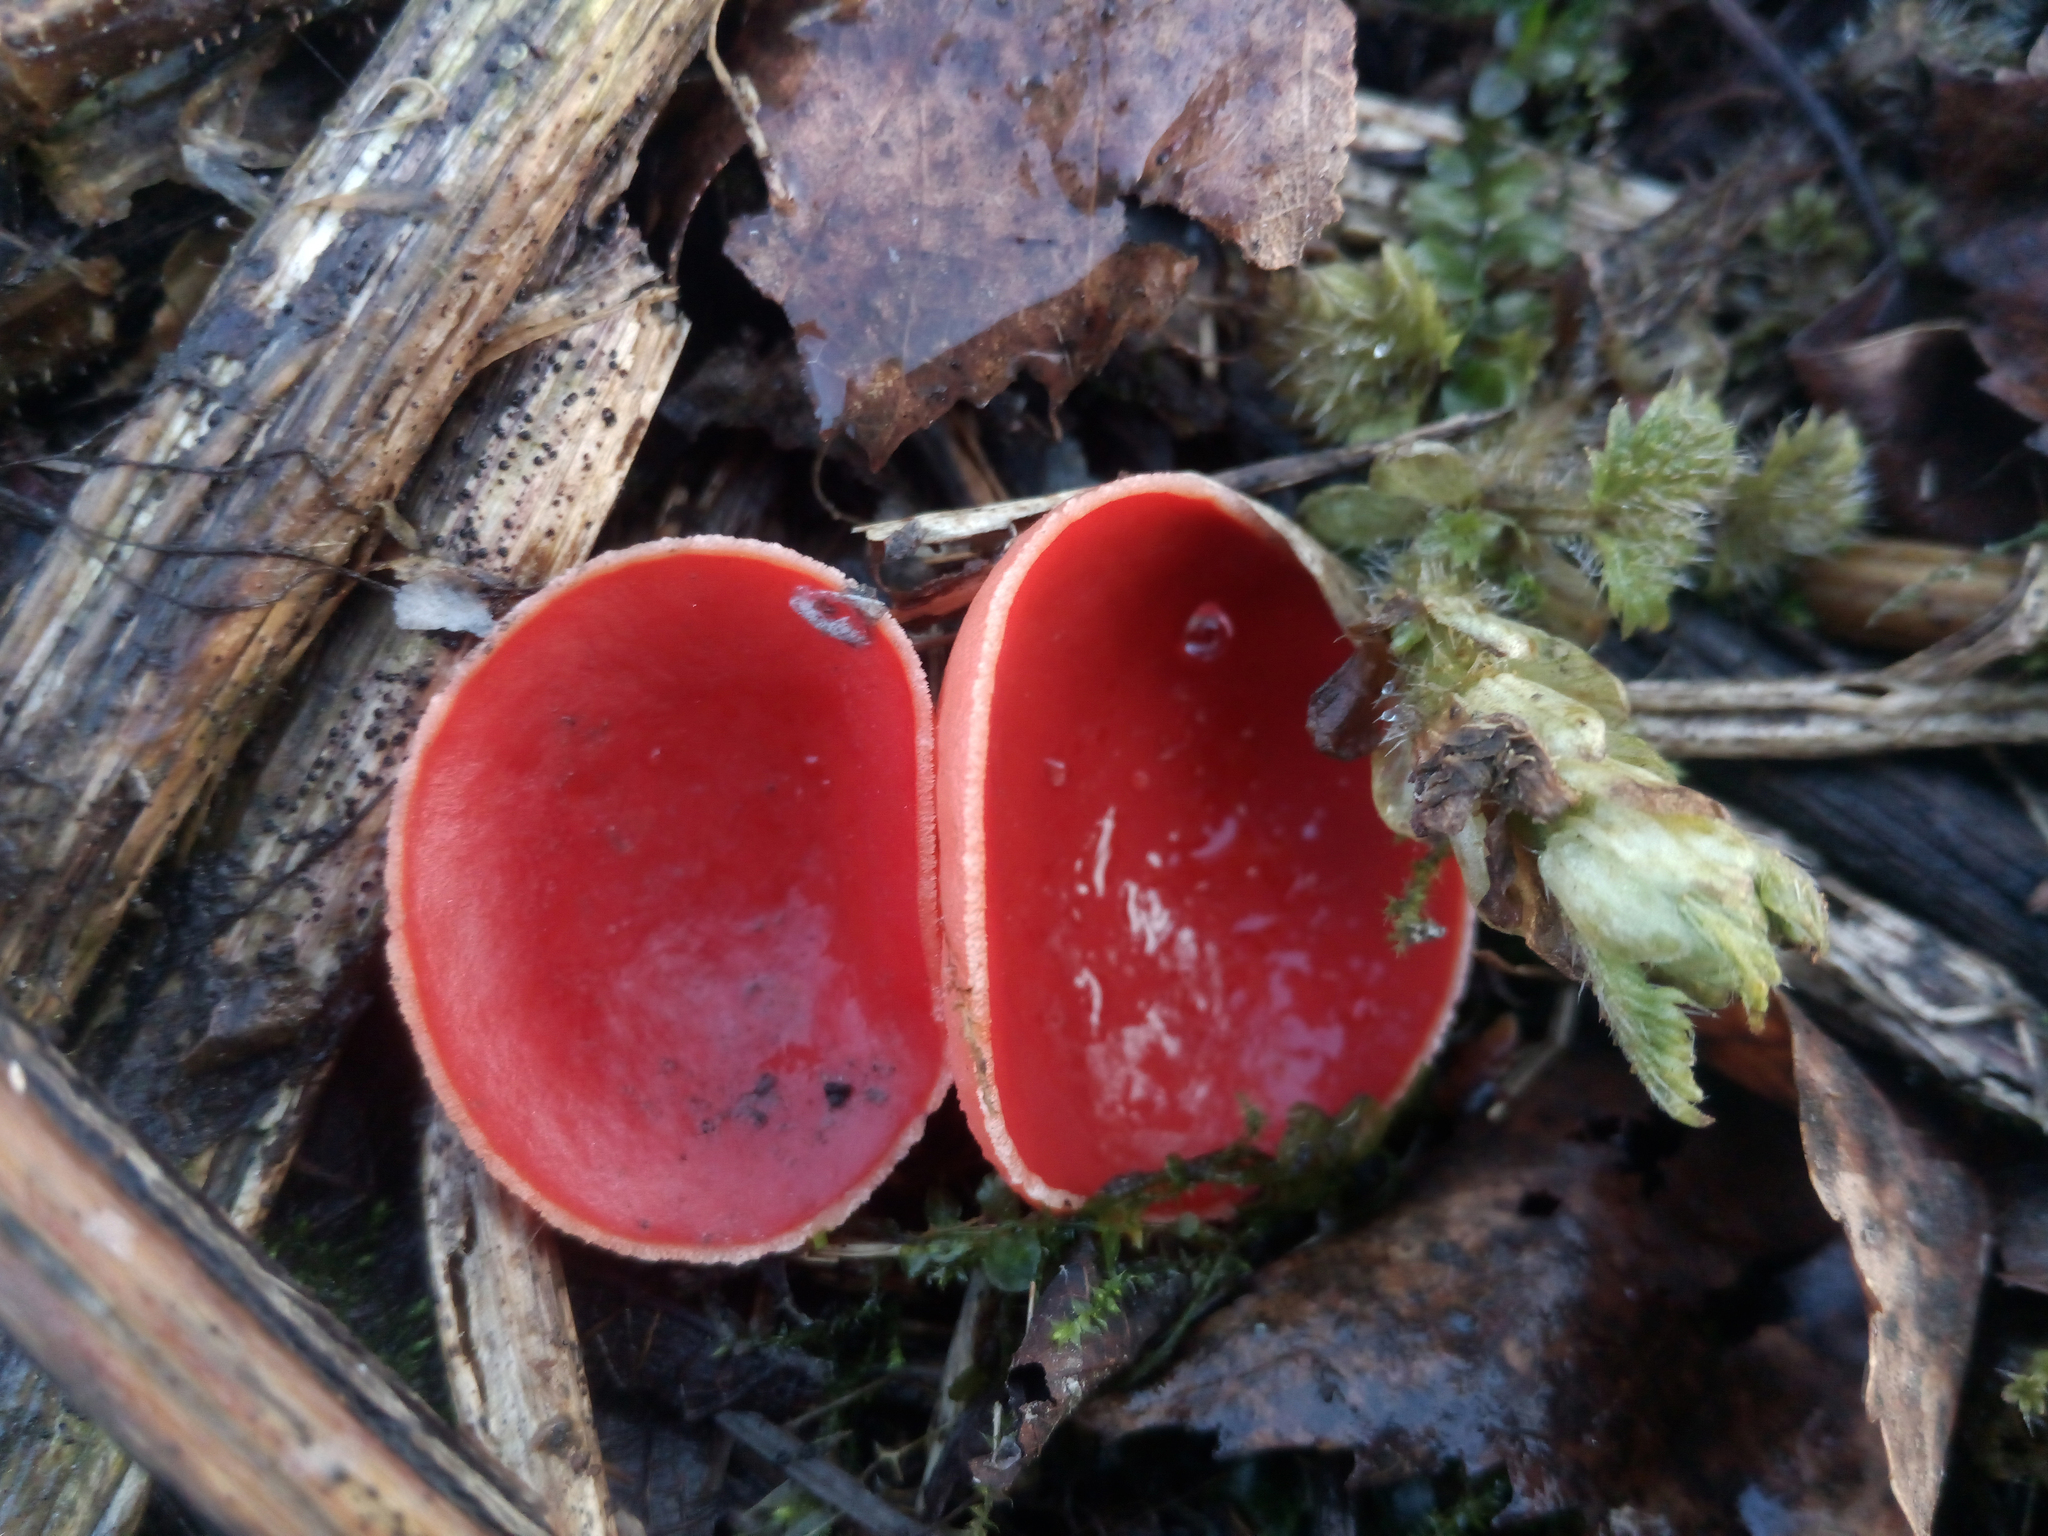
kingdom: Fungi
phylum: Ascomycota
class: Pezizomycetes
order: Pezizales
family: Sarcoscyphaceae
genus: Sarcoscypha
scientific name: Sarcoscypha
